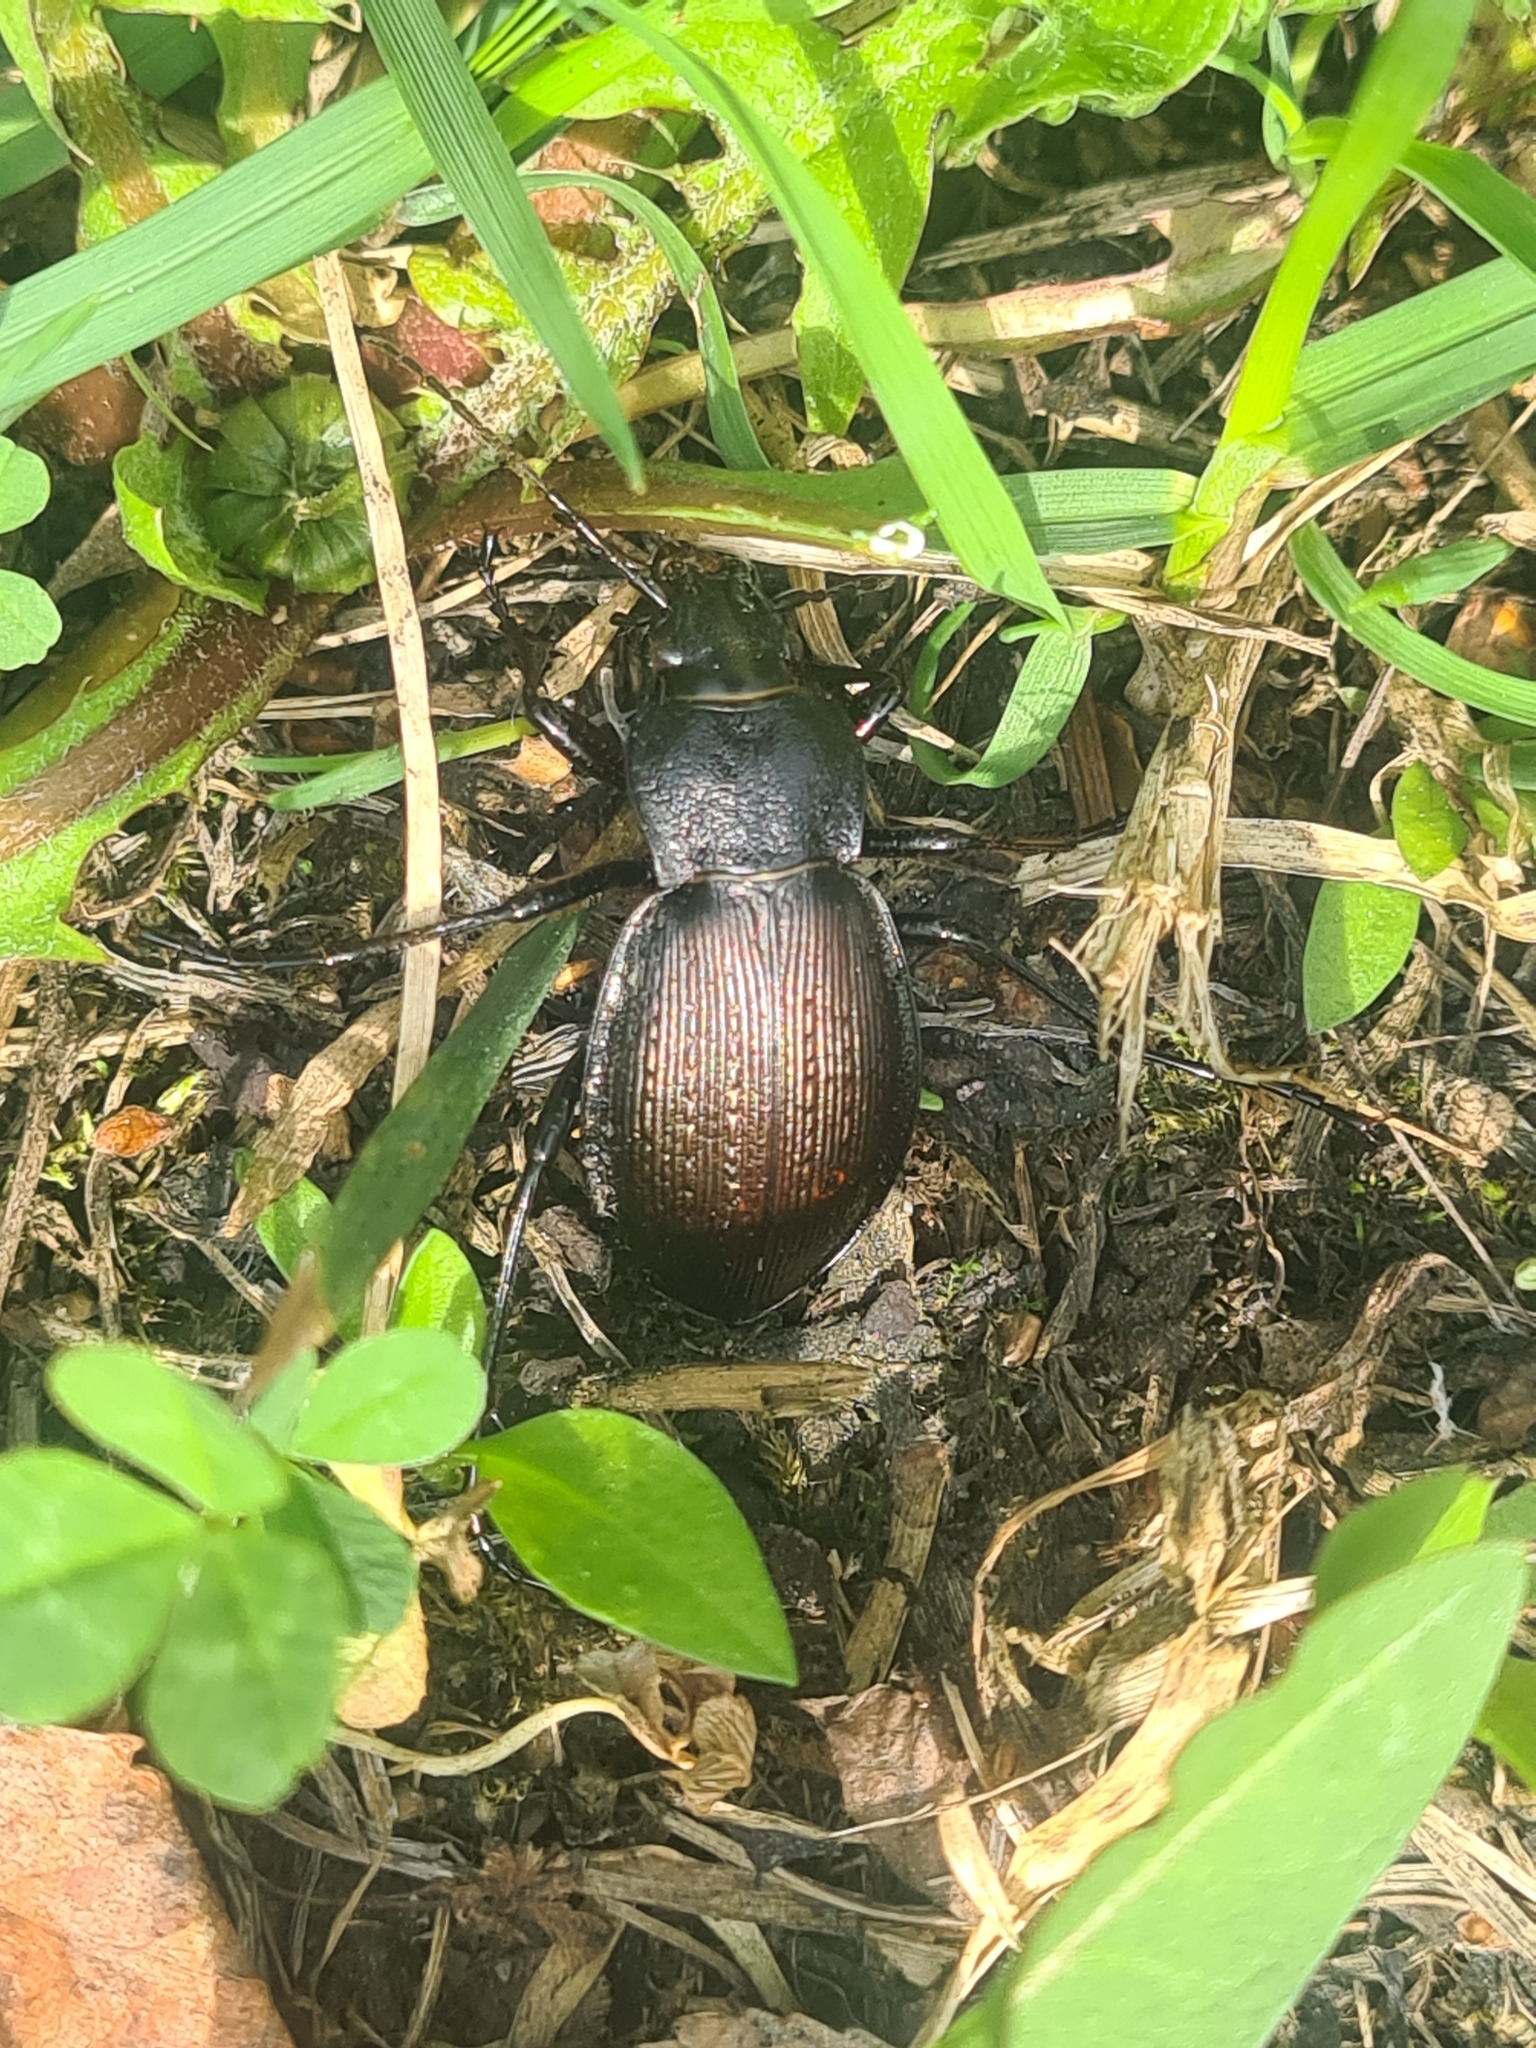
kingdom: Animalia
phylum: Arthropoda
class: Insecta
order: Coleoptera
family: Carabidae
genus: Carabus
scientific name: Carabus aeruginosus
